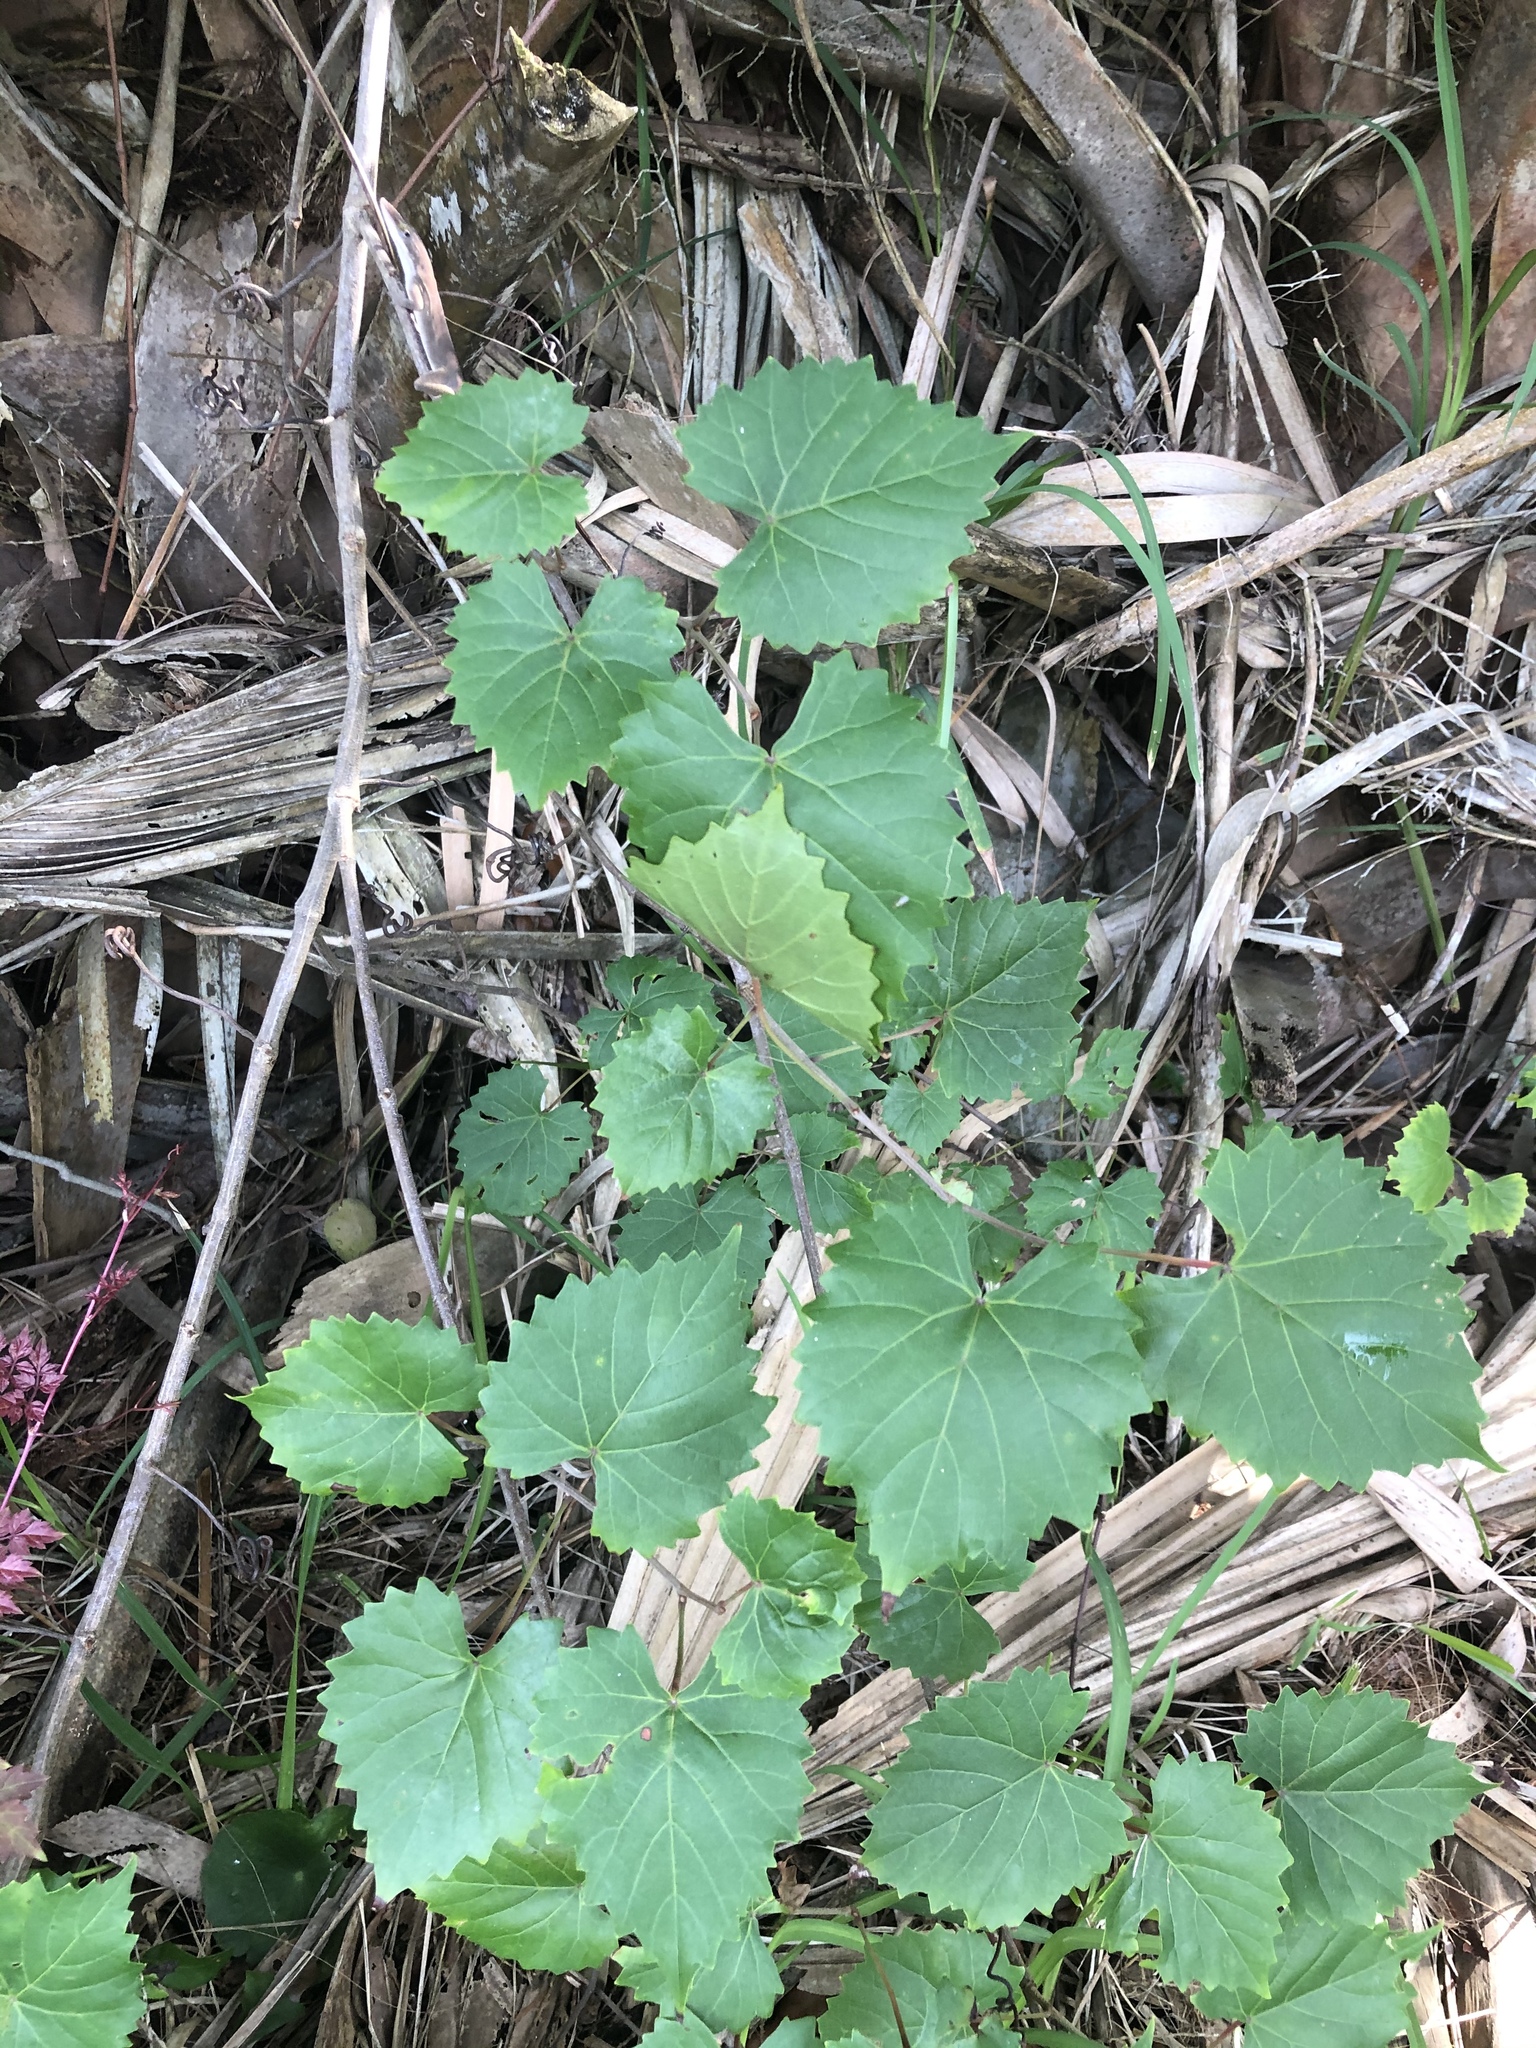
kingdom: Plantae
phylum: Tracheophyta
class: Magnoliopsida
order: Vitales
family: Vitaceae
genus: Vitis
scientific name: Vitis rotundifolia
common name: Muscadine grape
